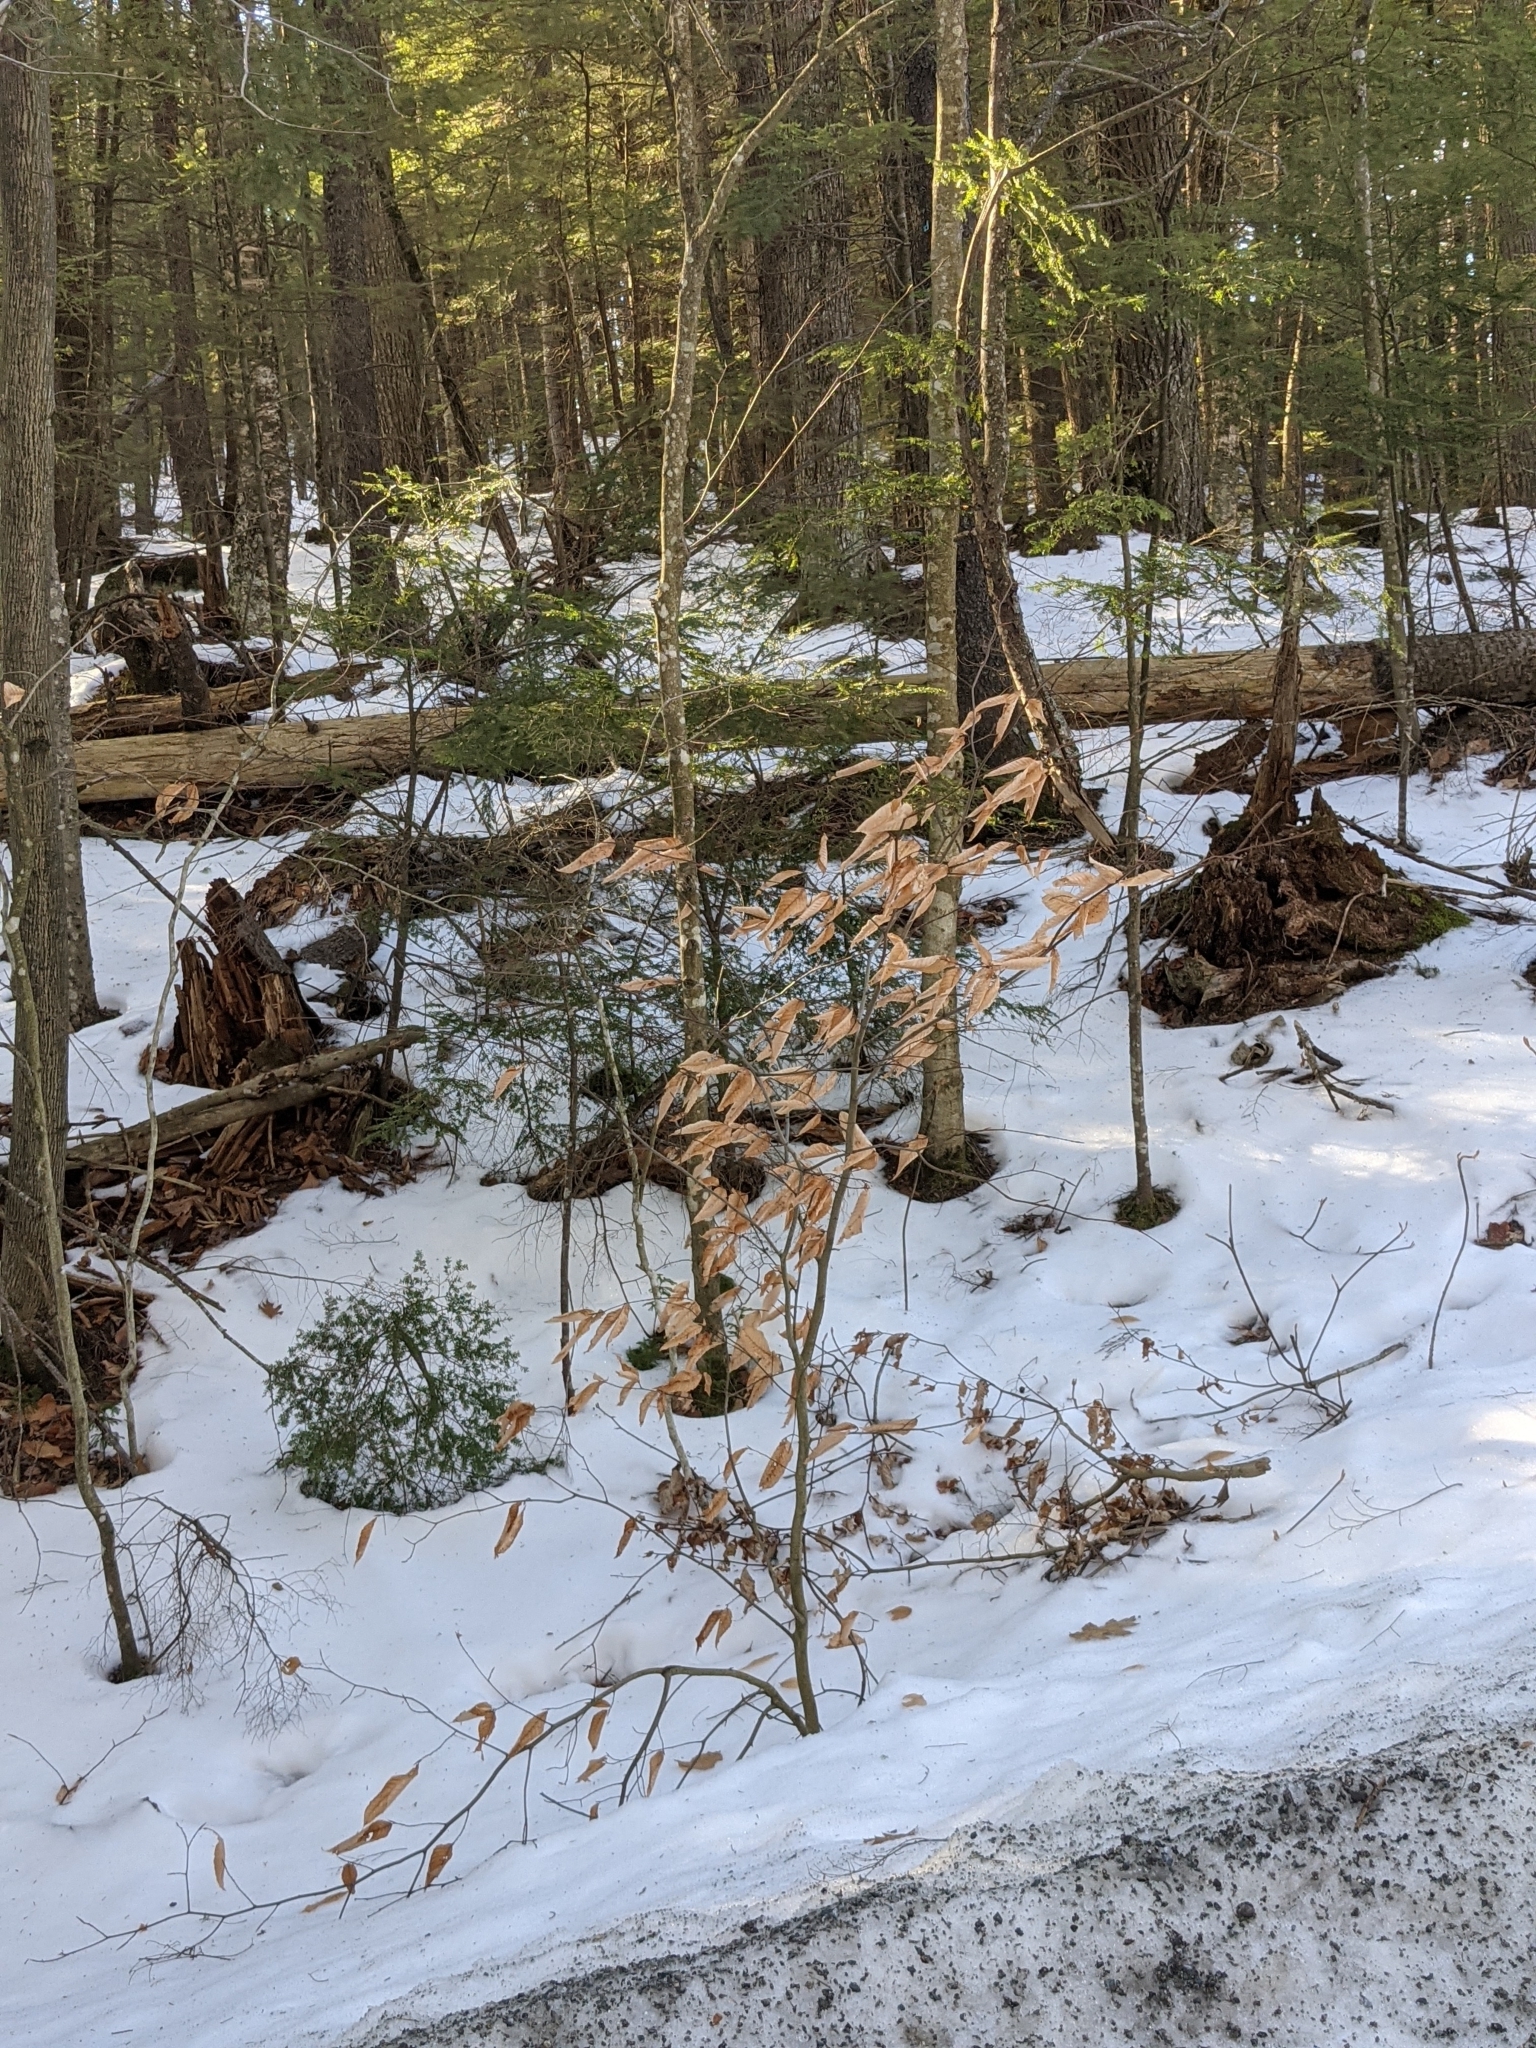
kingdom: Plantae
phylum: Tracheophyta
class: Magnoliopsida
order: Fagales
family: Fagaceae
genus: Fagus
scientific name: Fagus grandifolia
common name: American beech
